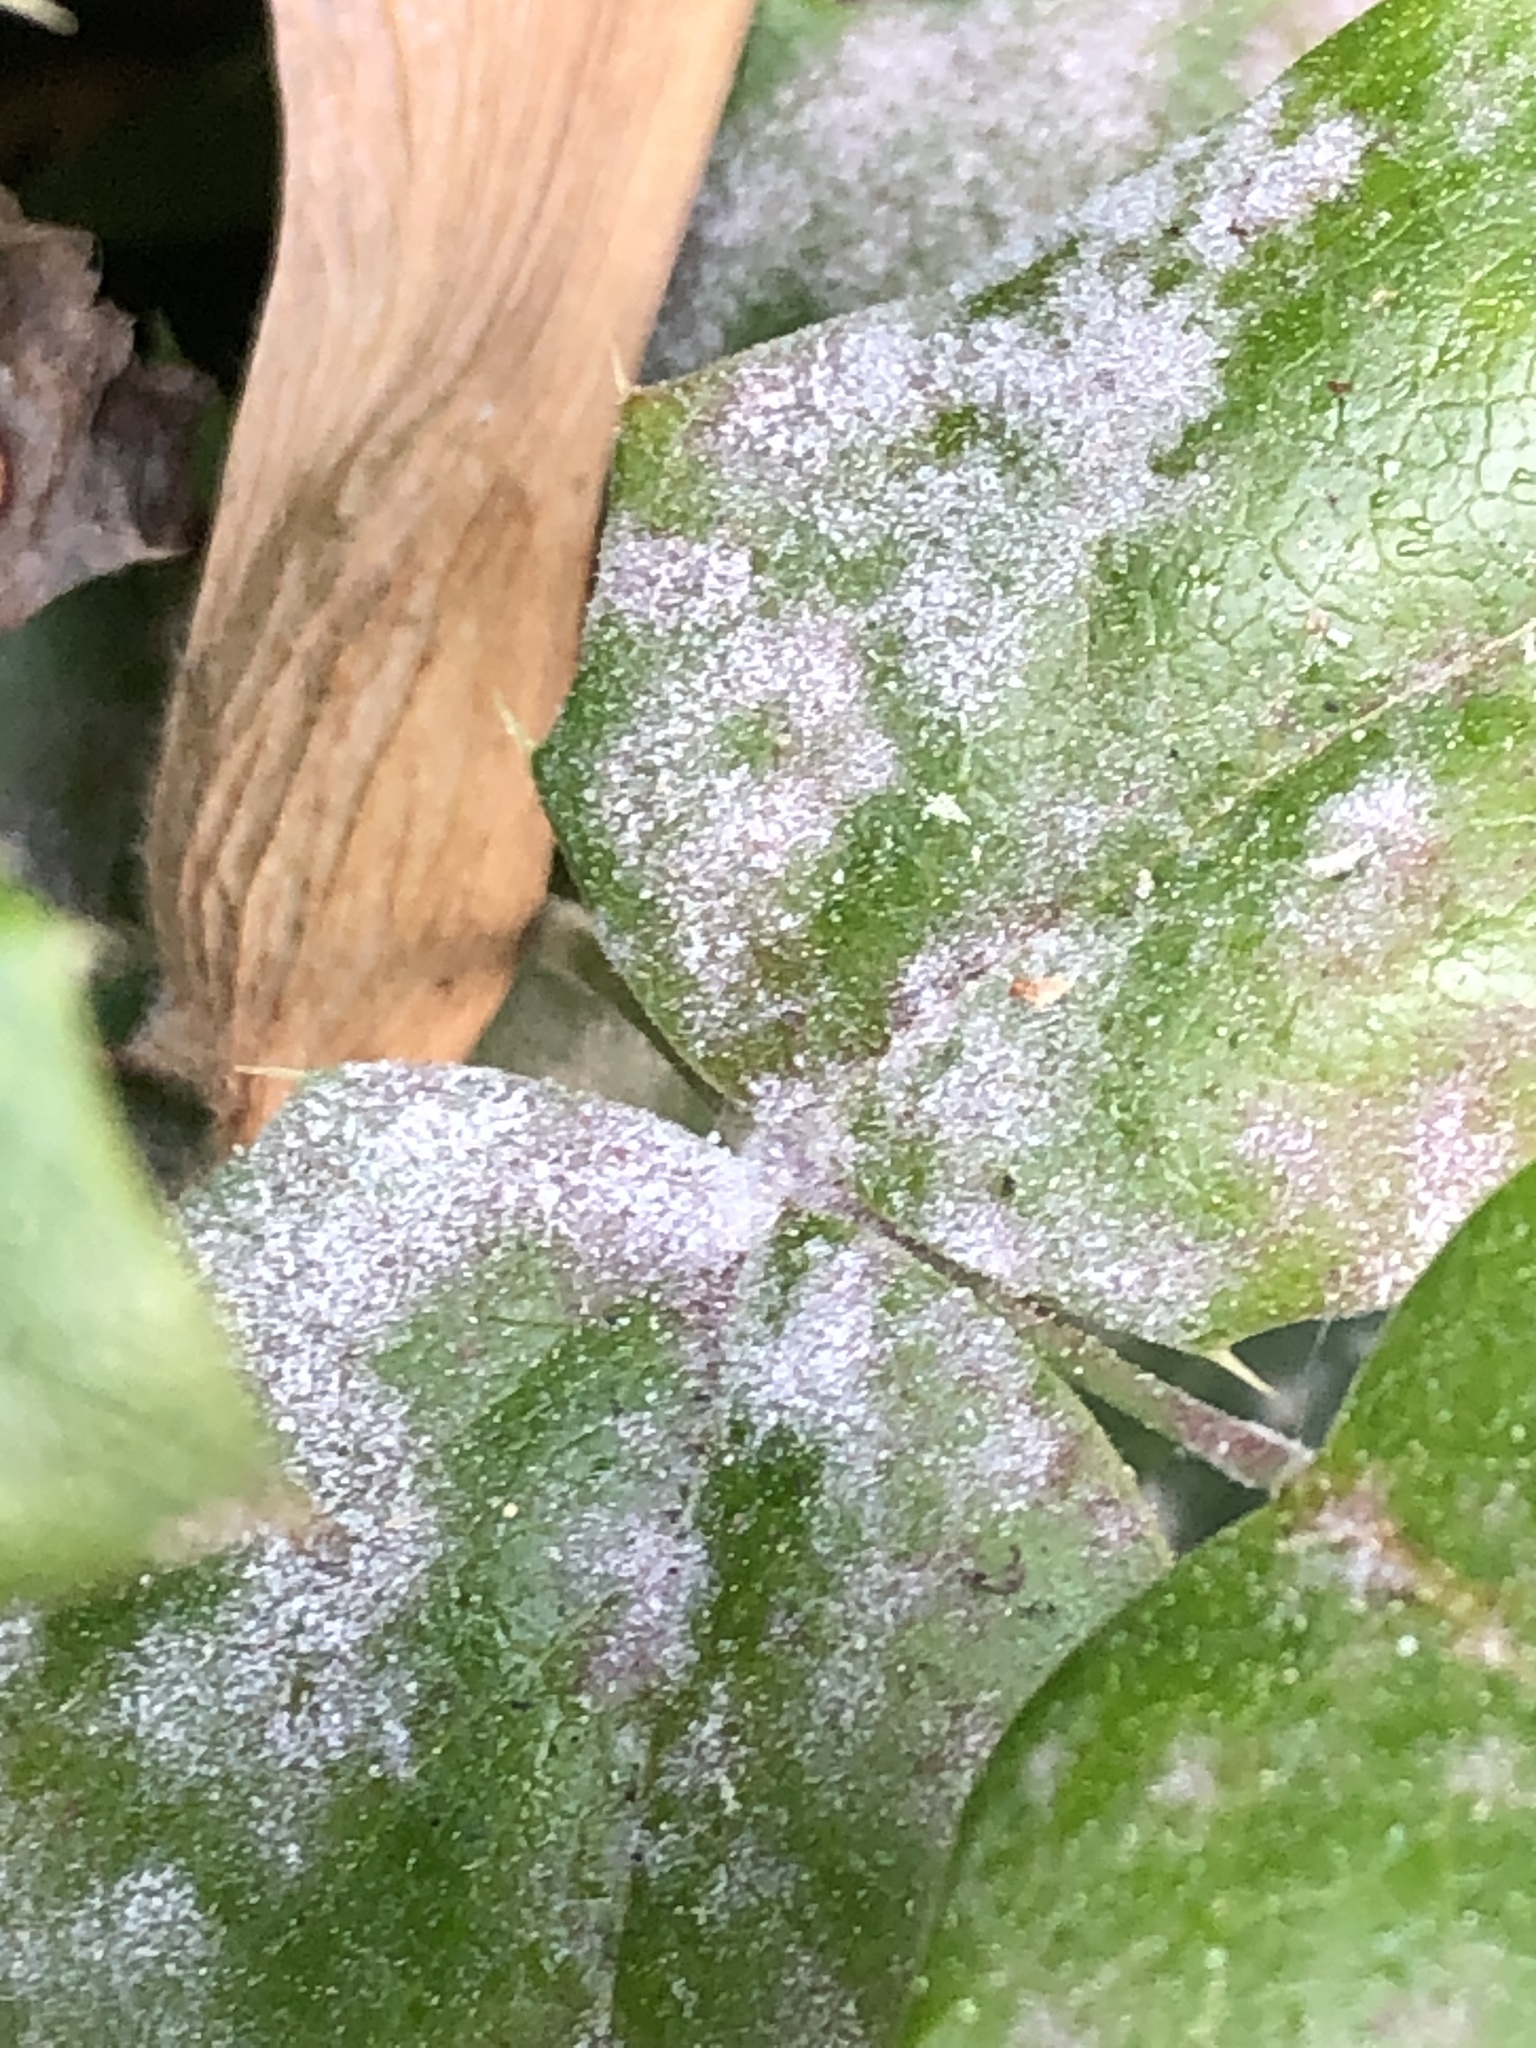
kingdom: Fungi
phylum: Ascomycota
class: Leotiomycetes
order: Helotiales
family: Erysiphaceae
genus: Erysiphe
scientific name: Erysiphe berberidis
